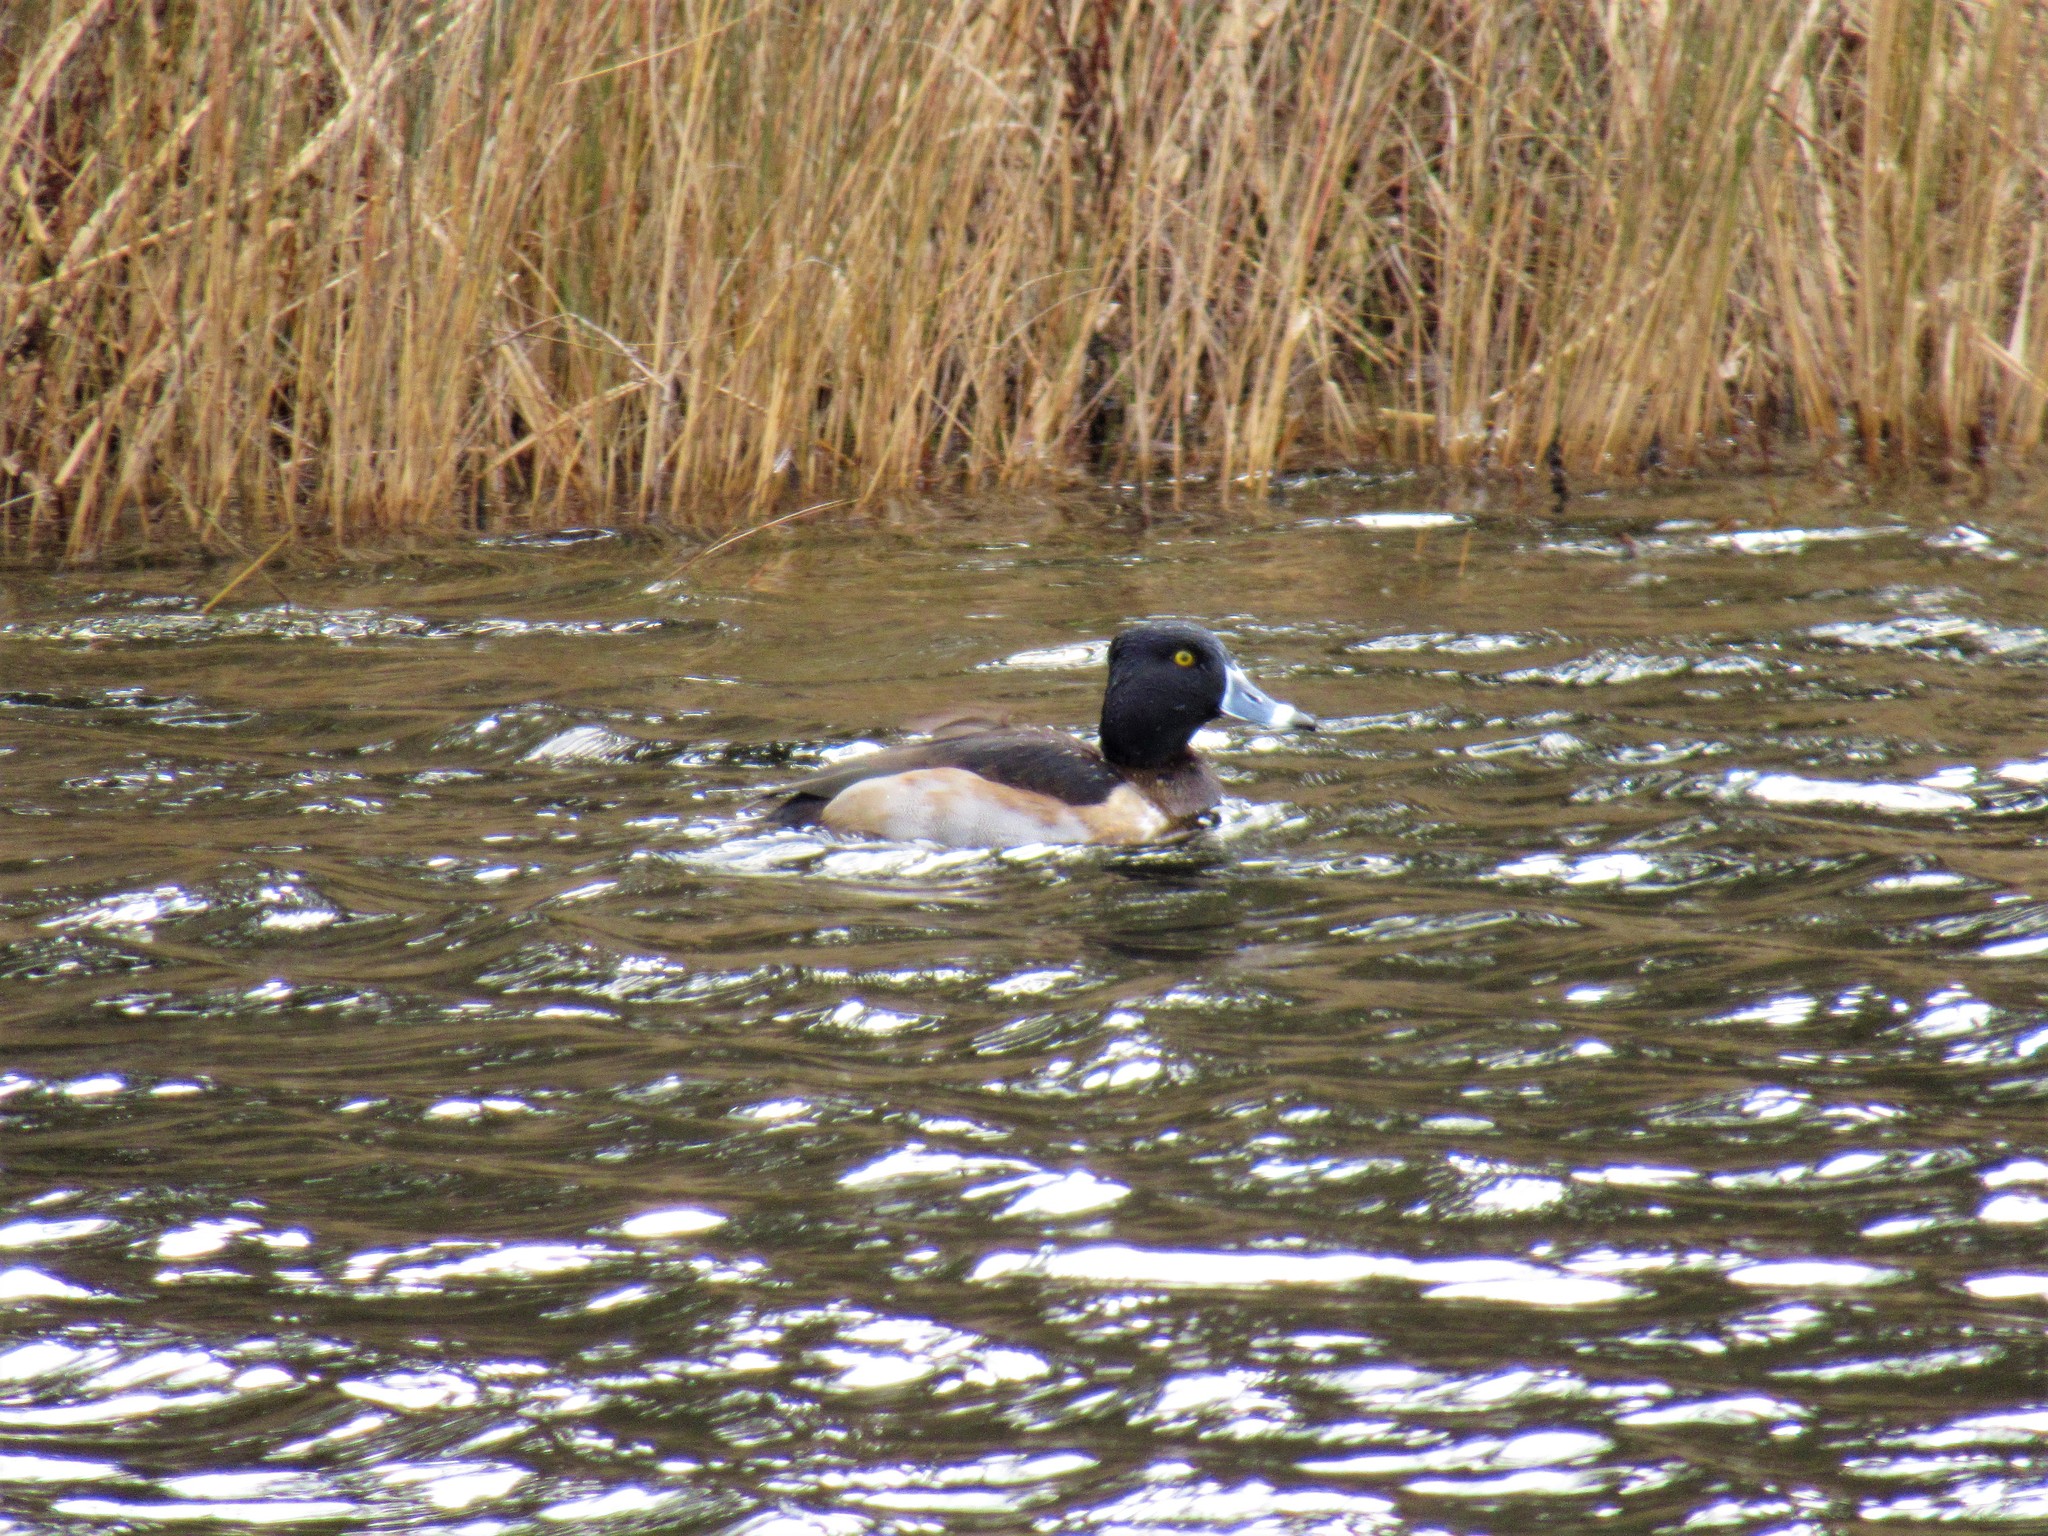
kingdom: Animalia
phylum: Chordata
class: Aves
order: Anseriformes
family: Anatidae
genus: Aythya
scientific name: Aythya collaris
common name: Ring-necked duck
